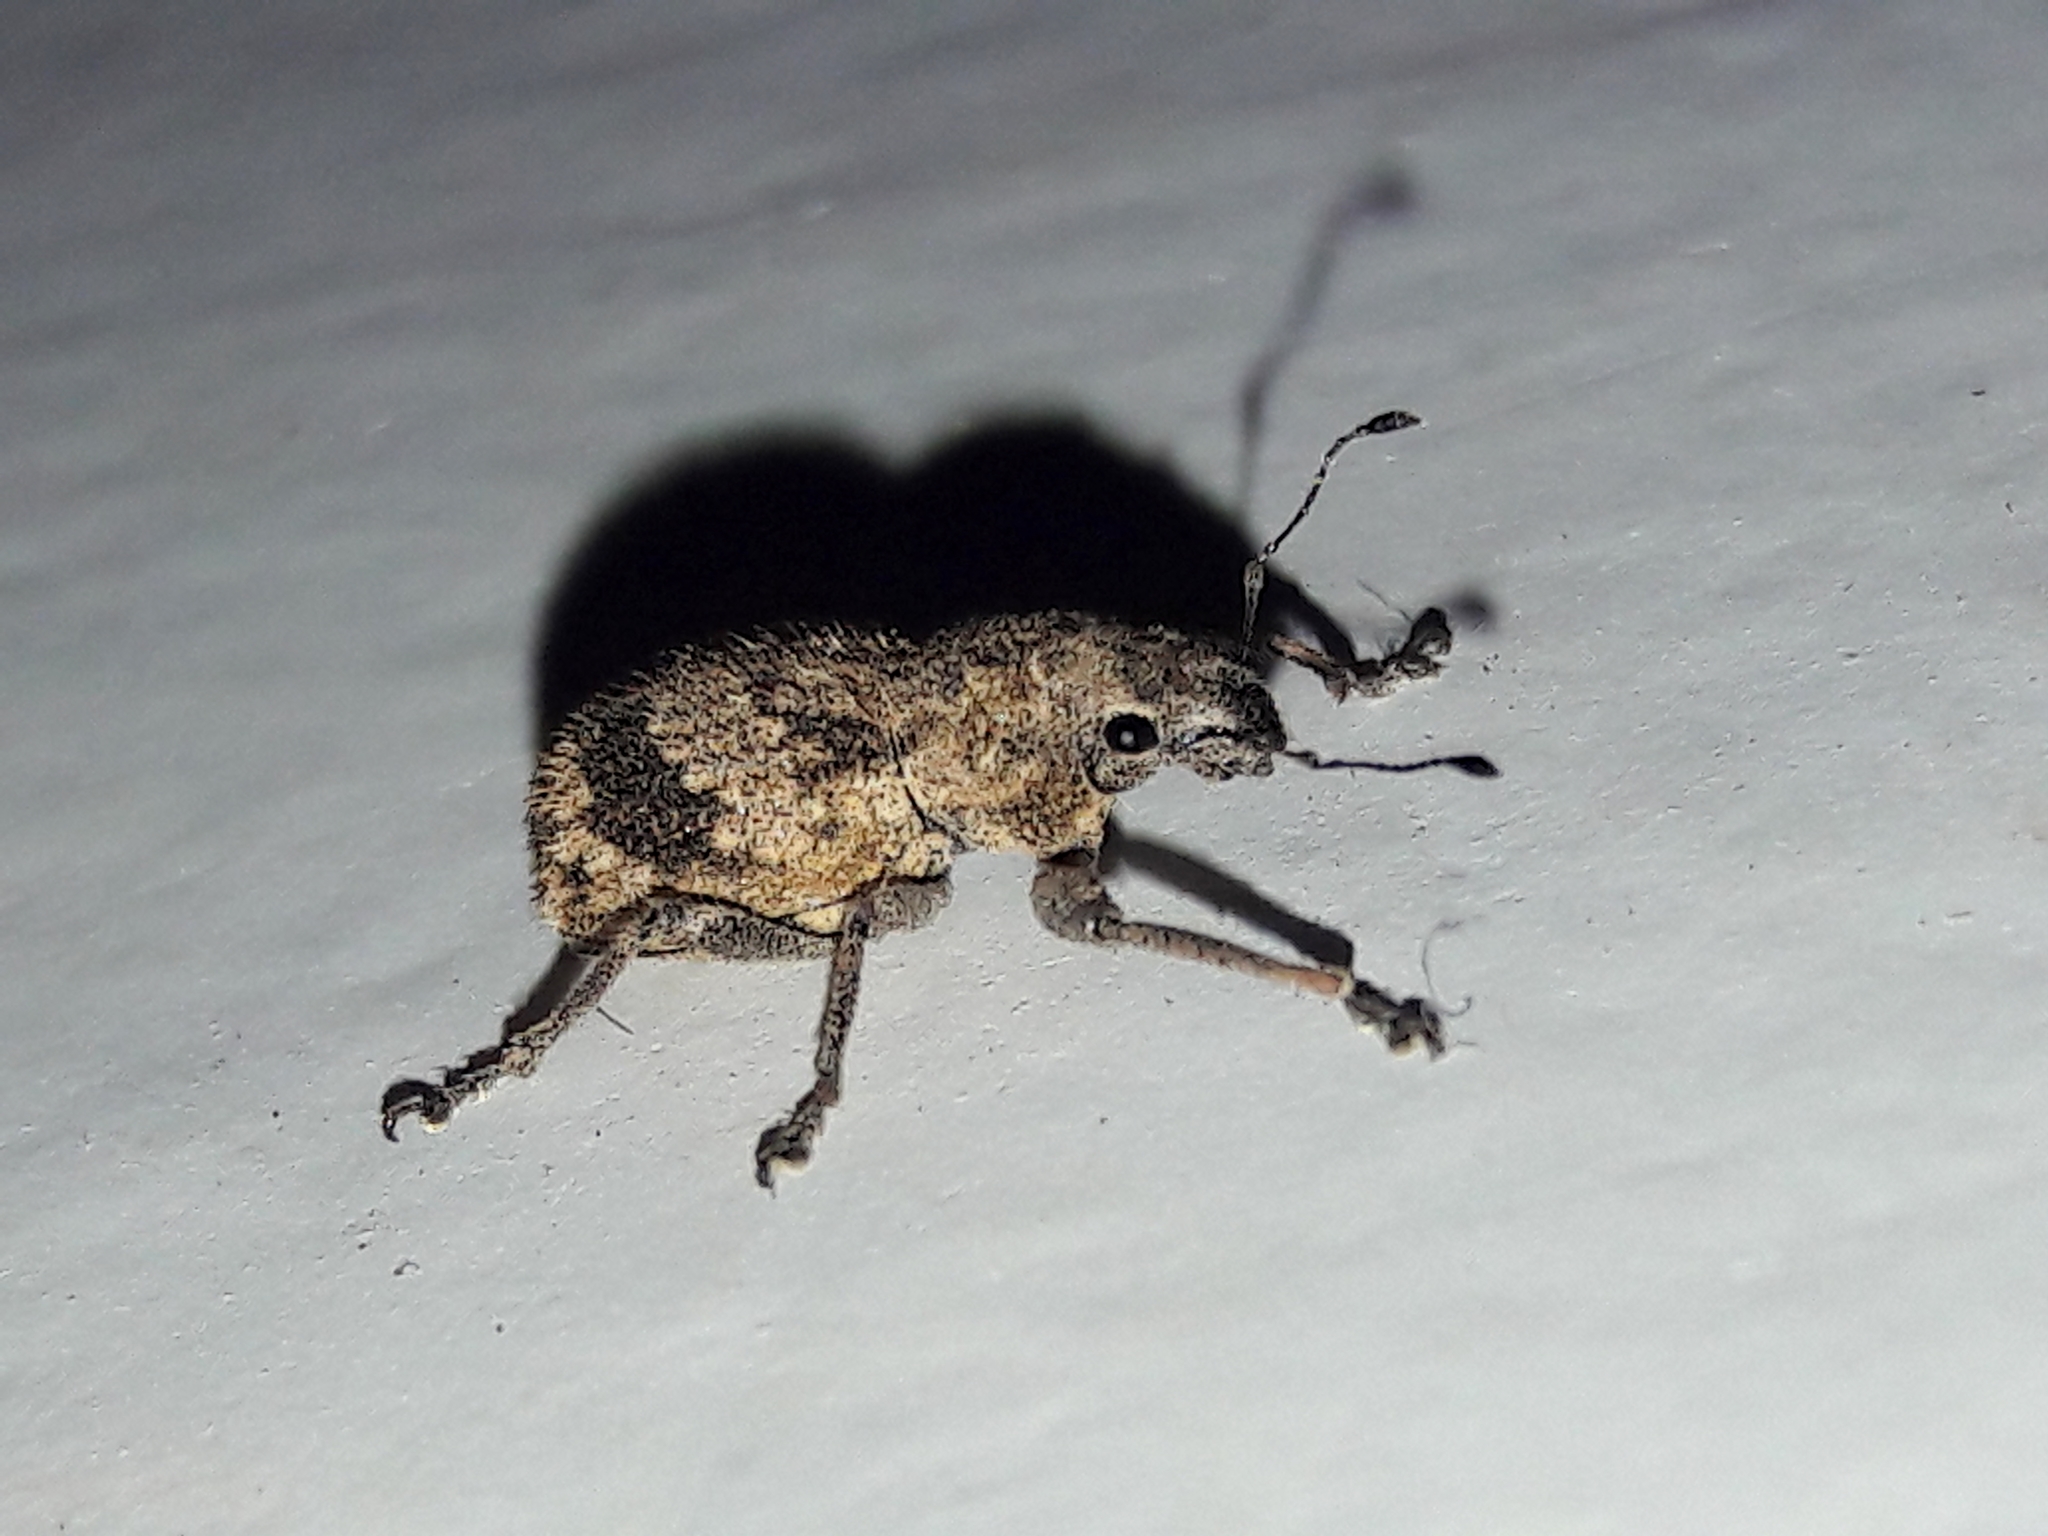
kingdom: Animalia
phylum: Arthropoda
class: Insecta
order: Coleoptera
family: Curculionidae
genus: Pantomorus
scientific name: Pantomorus
